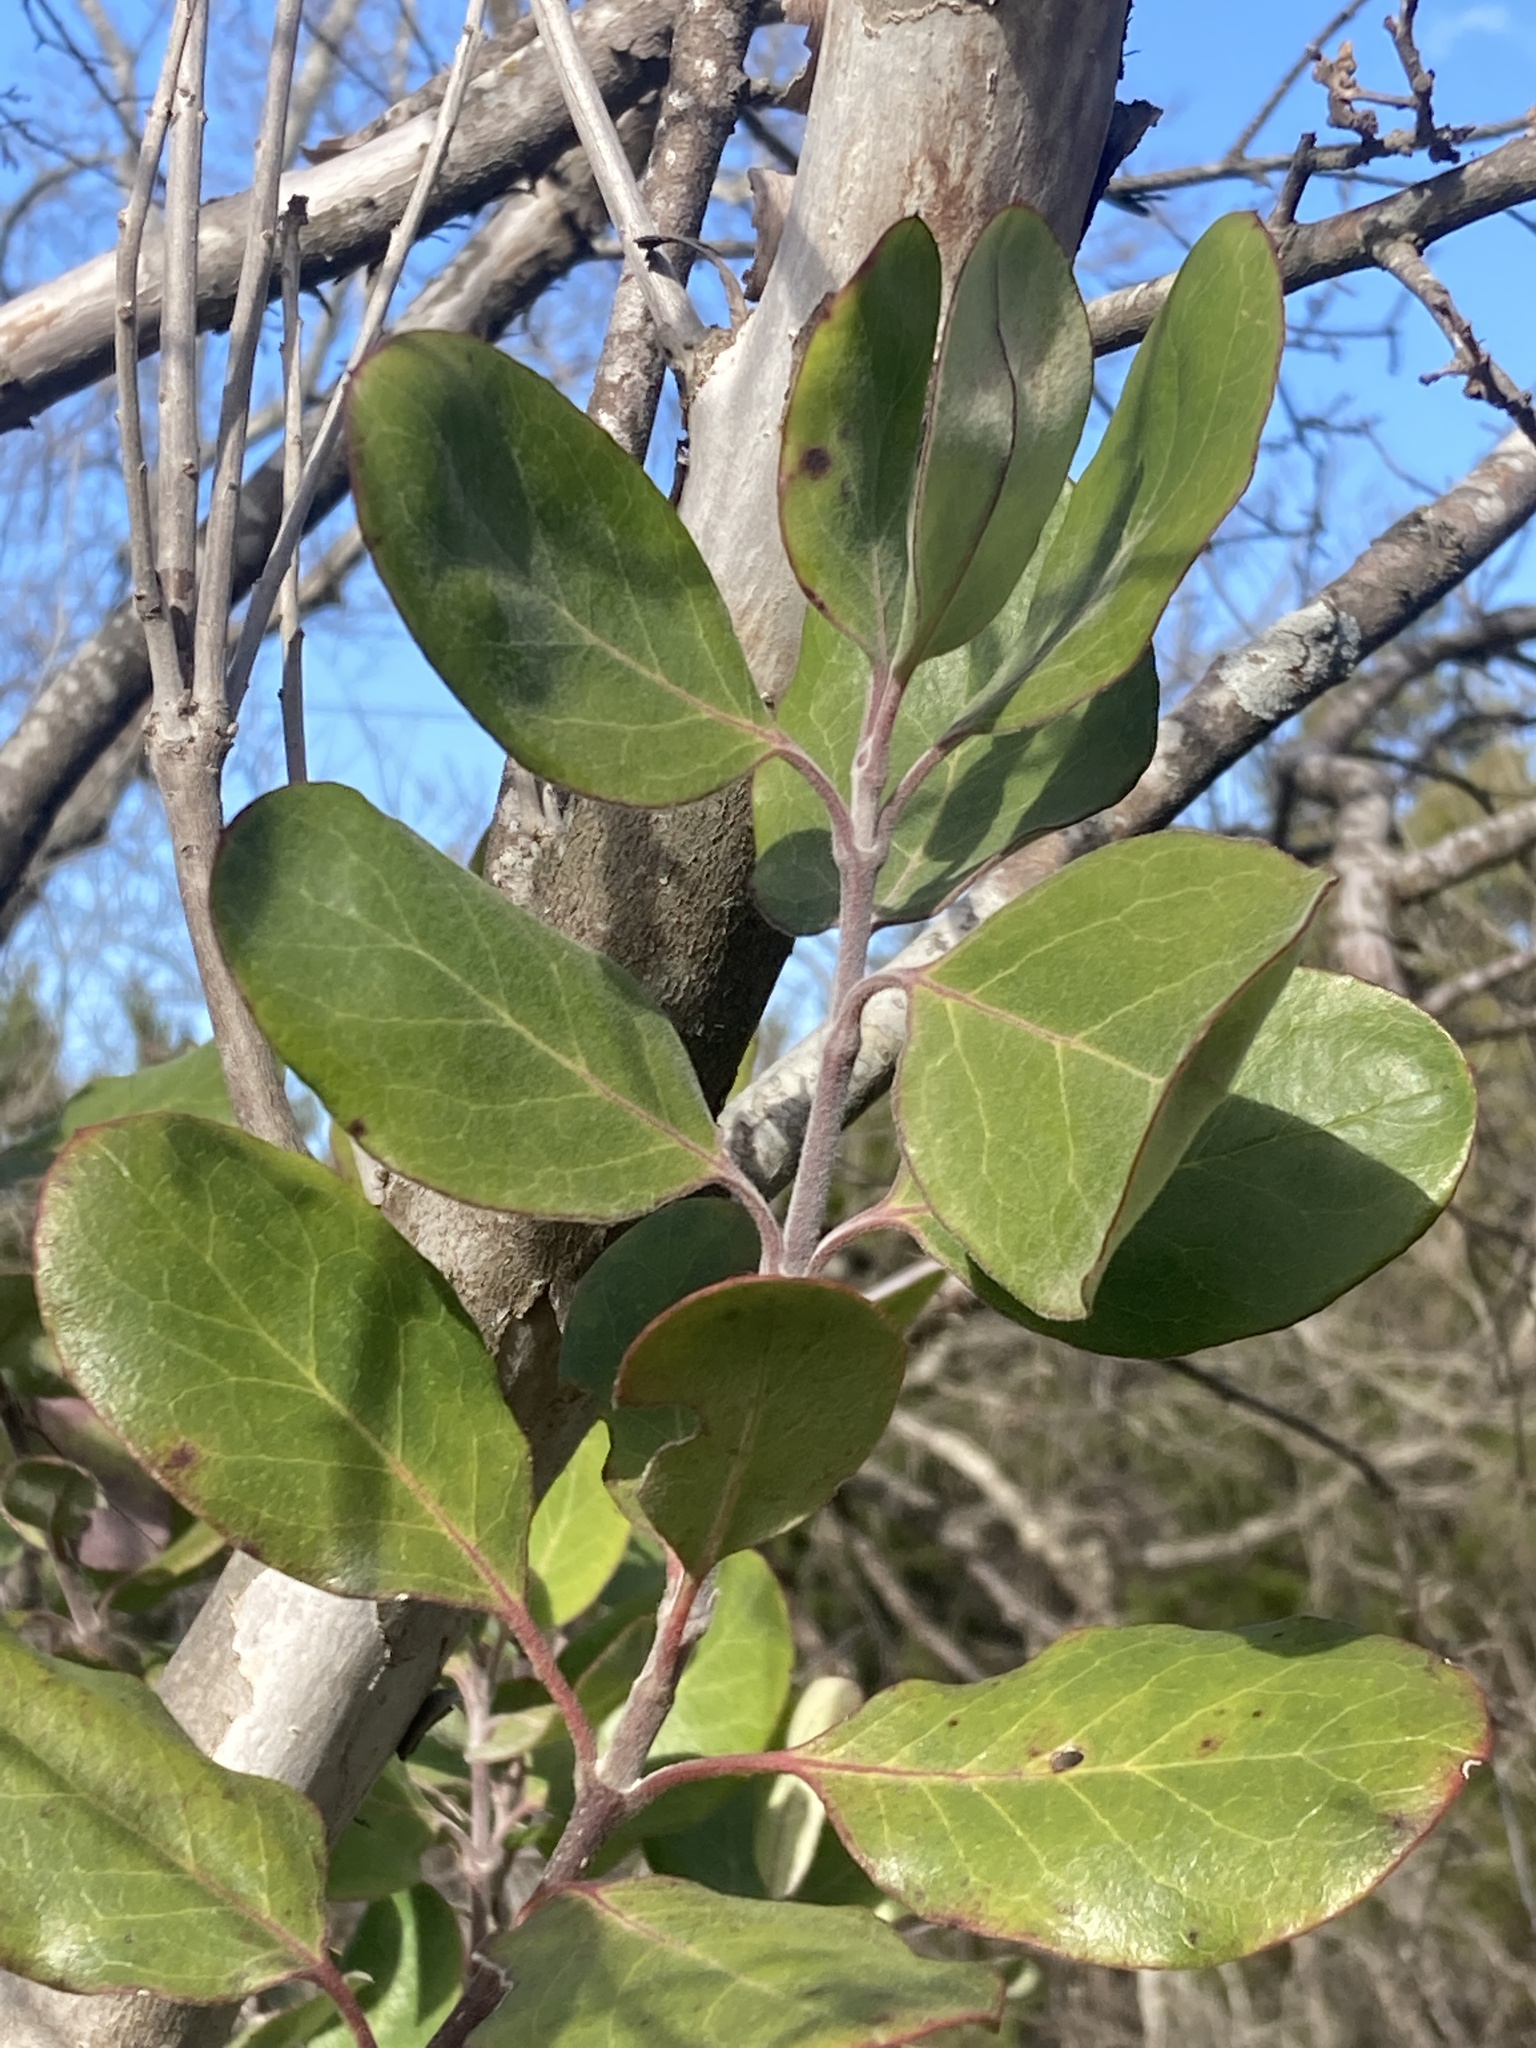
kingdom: Plantae
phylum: Tracheophyta
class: Magnoliopsida
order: Garryales
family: Garryaceae
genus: Garrya
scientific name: Garrya lindheimeri
